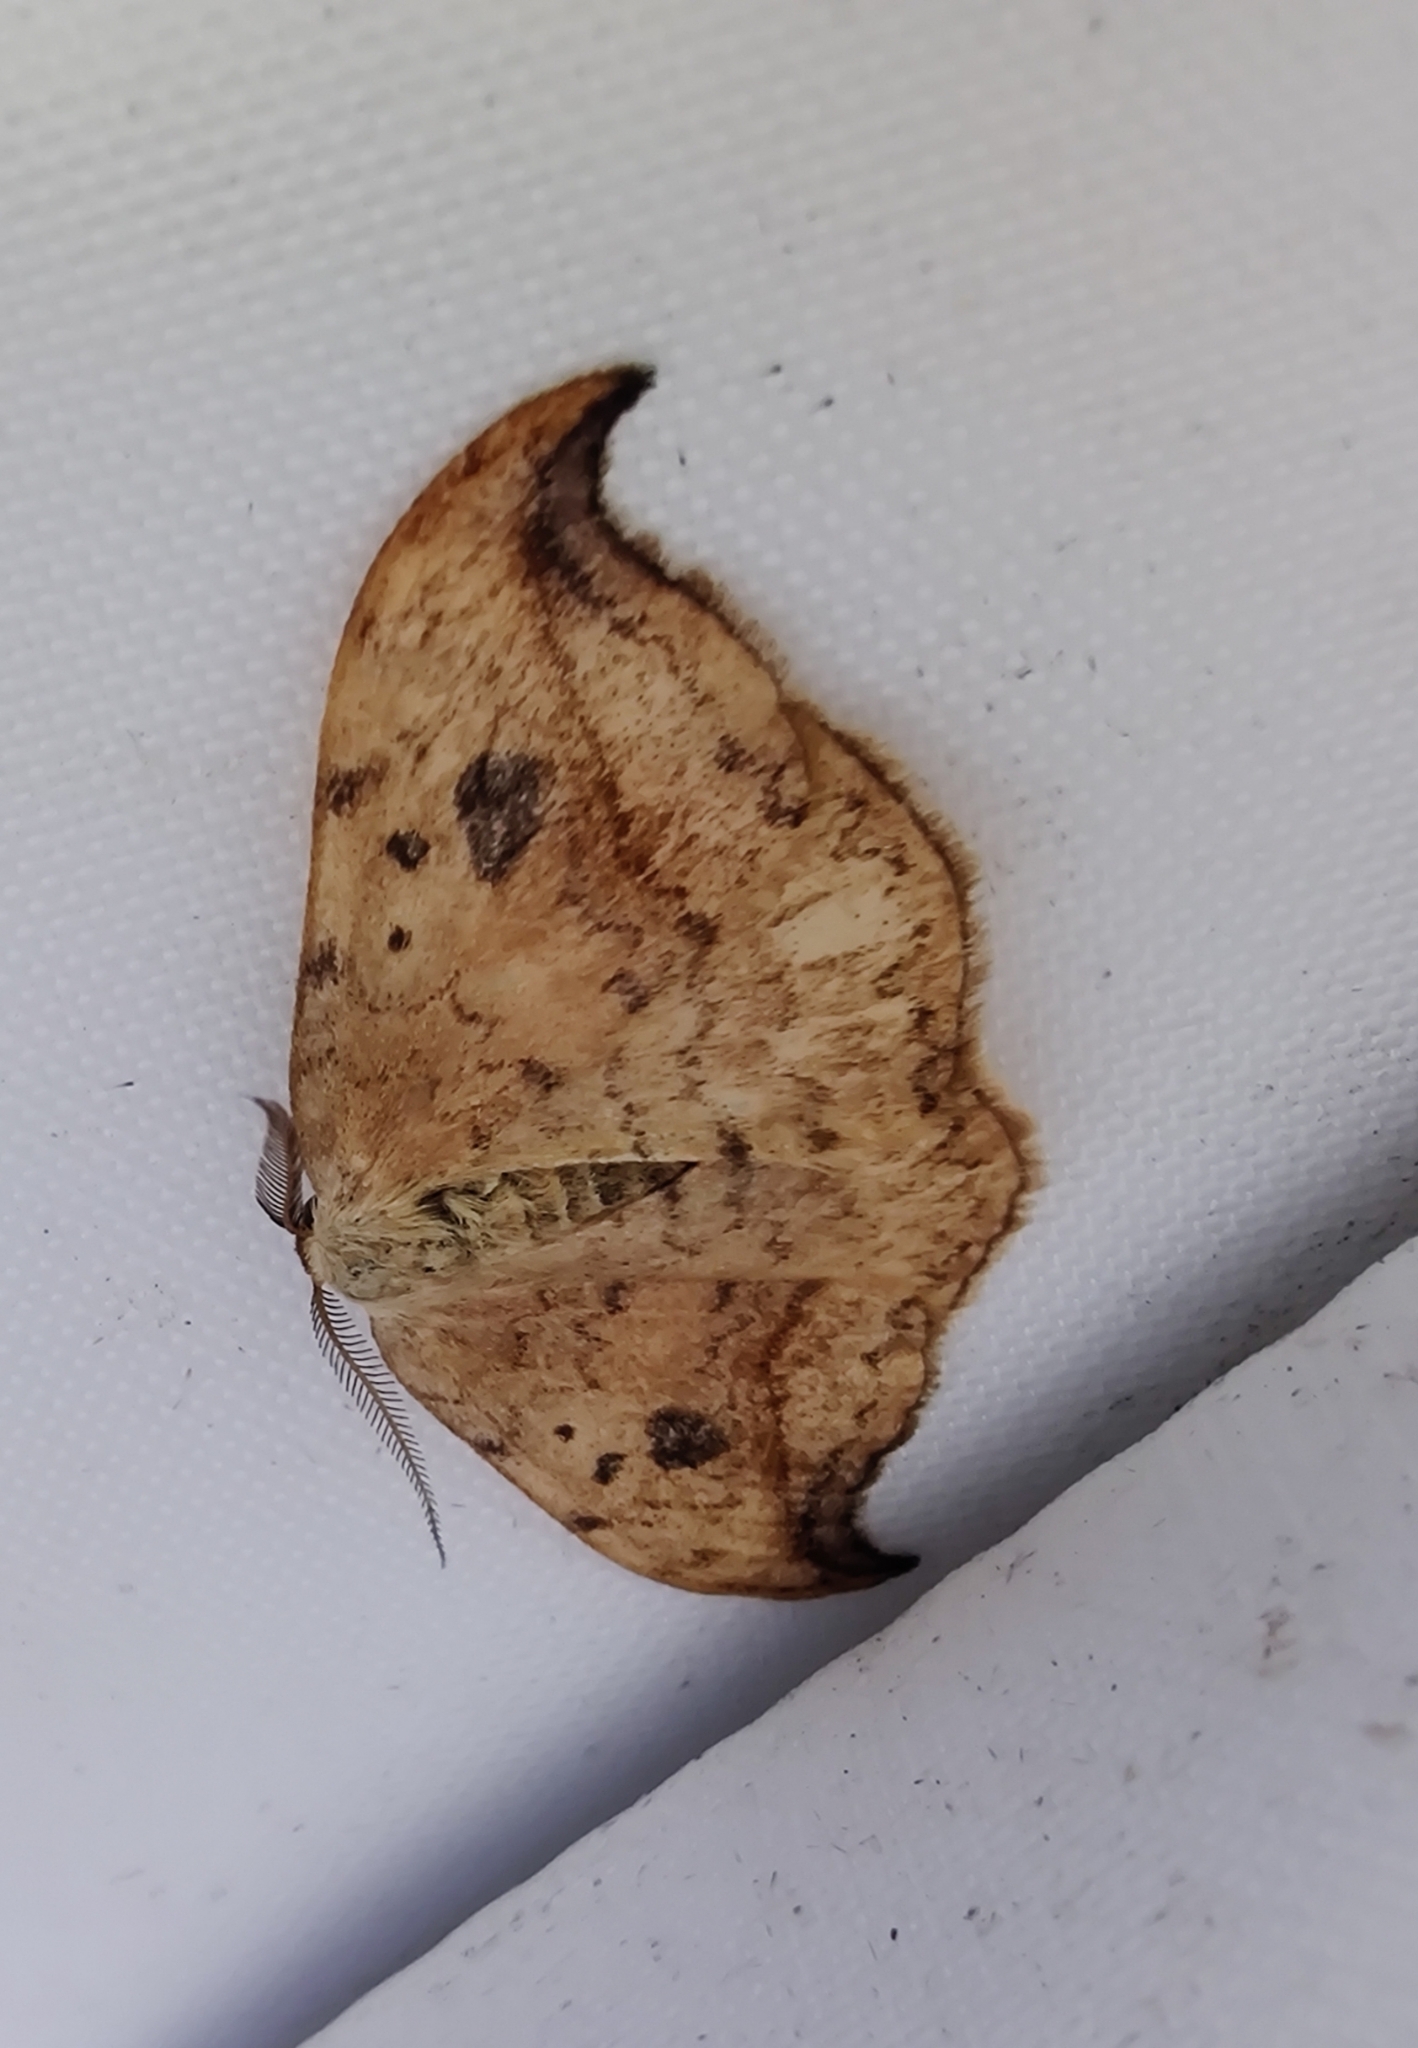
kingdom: Animalia
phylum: Arthropoda
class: Insecta
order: Lepidoptera
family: Drepanidae
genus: Drepana
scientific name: Drepana falcataria
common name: Pebble hook-tip
